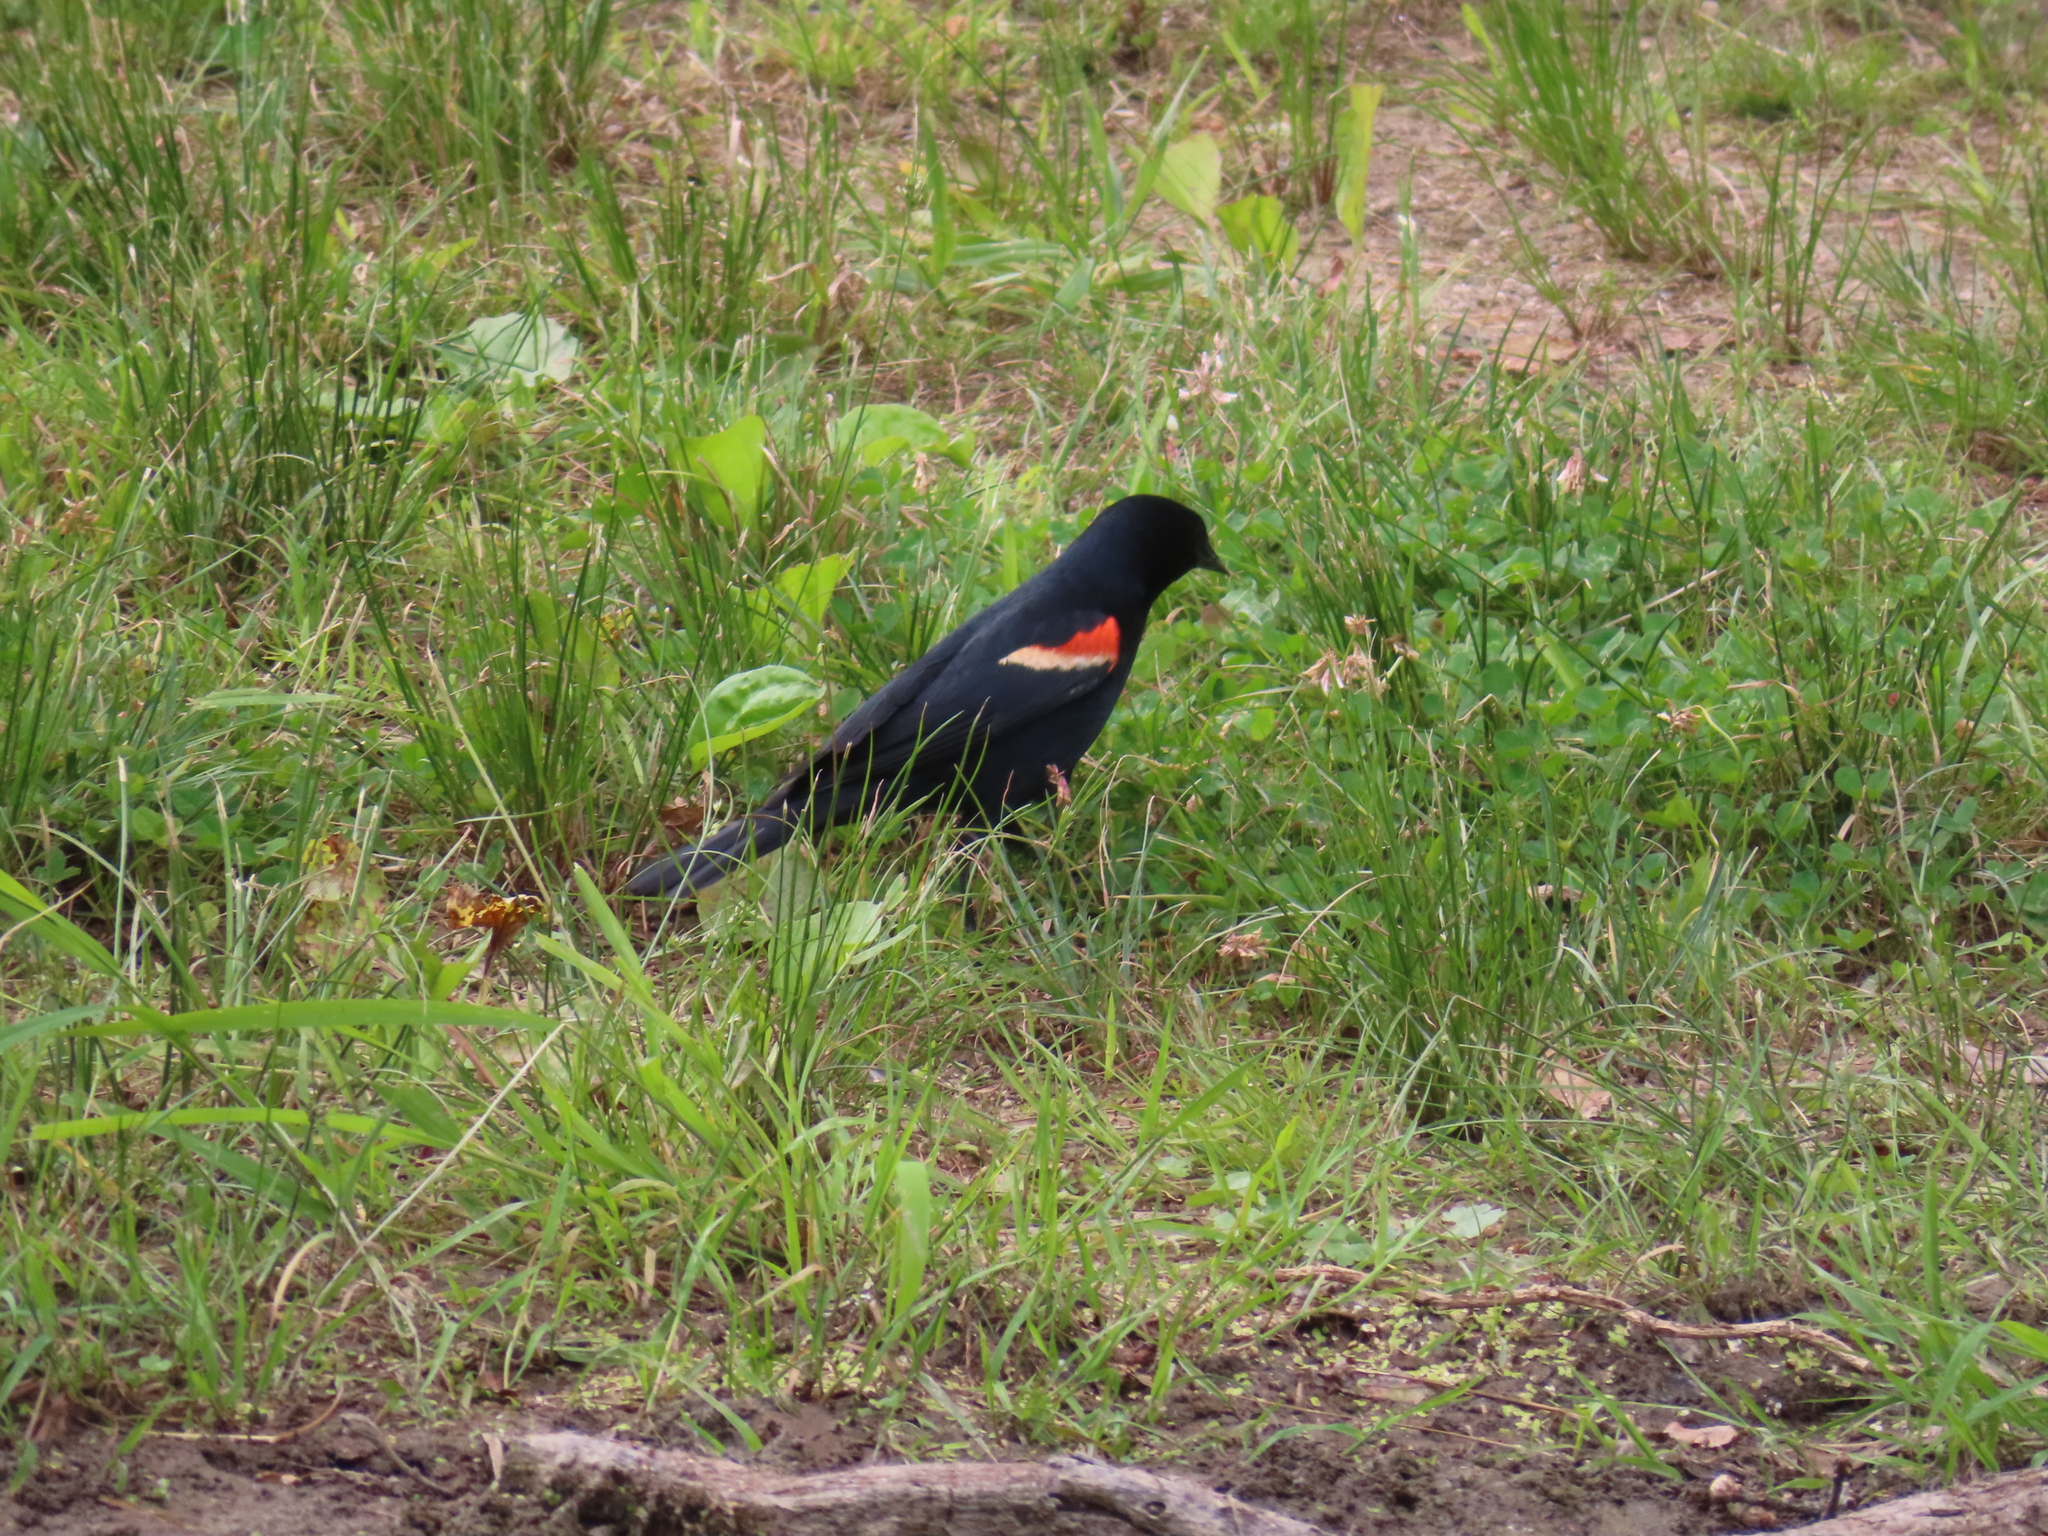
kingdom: Animalia
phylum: Chordata
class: Aves
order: Passeriformes
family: Icteridae
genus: Agelaius
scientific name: Agelaius phoeniceus
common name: Red-winged blackbird
